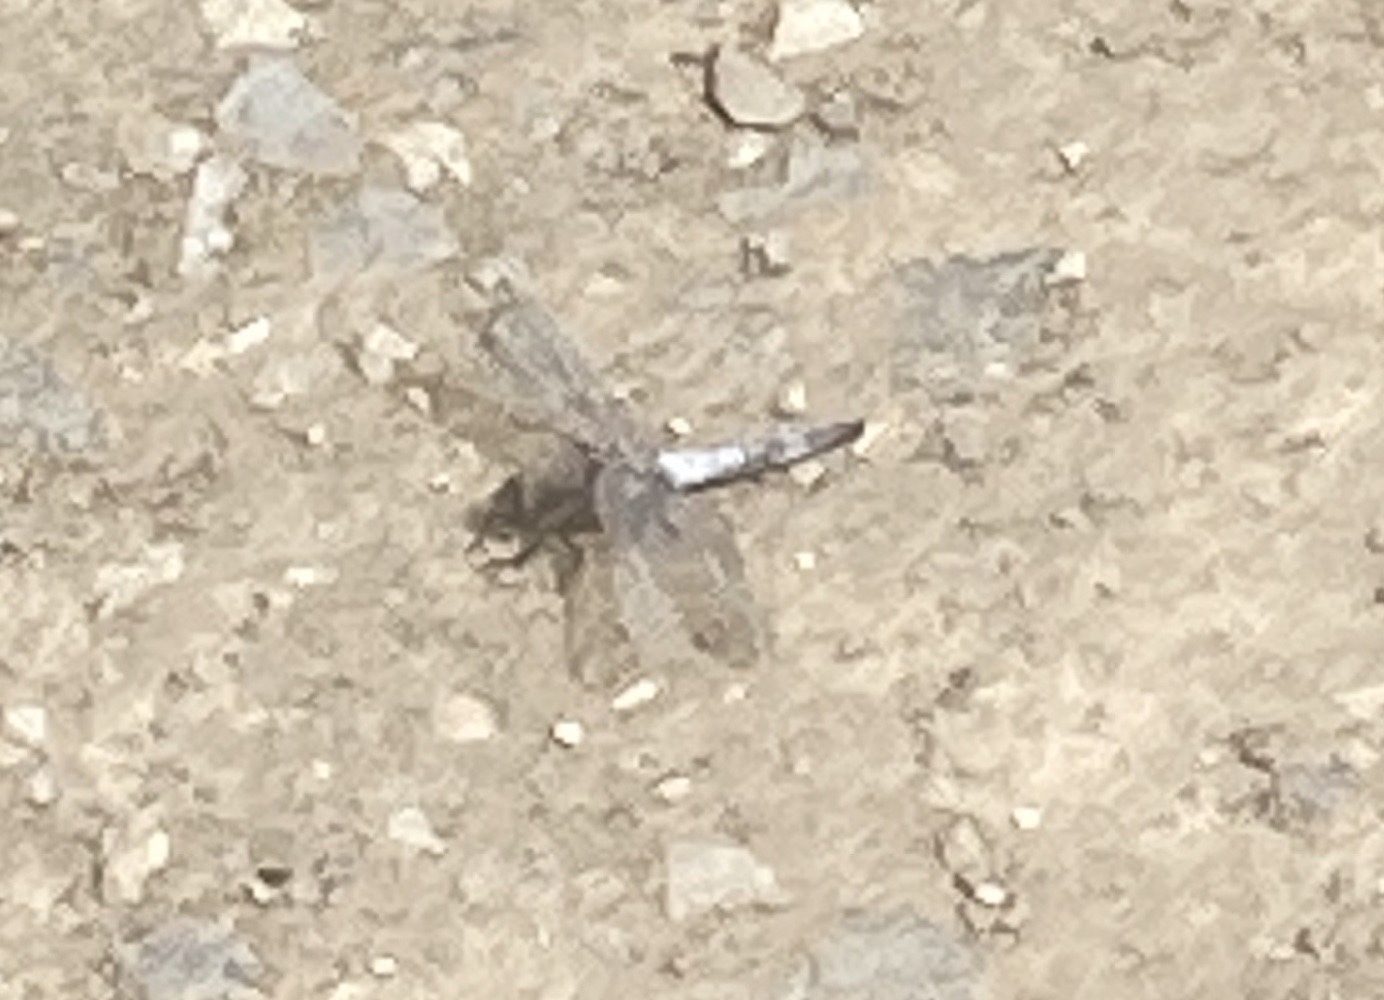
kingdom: Animalia
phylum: Arthropoda
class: Insecta
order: Odonata
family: Libellulidae
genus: Orthetrum
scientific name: Orthetrum cancellatum
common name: Black-tailed skimmer
